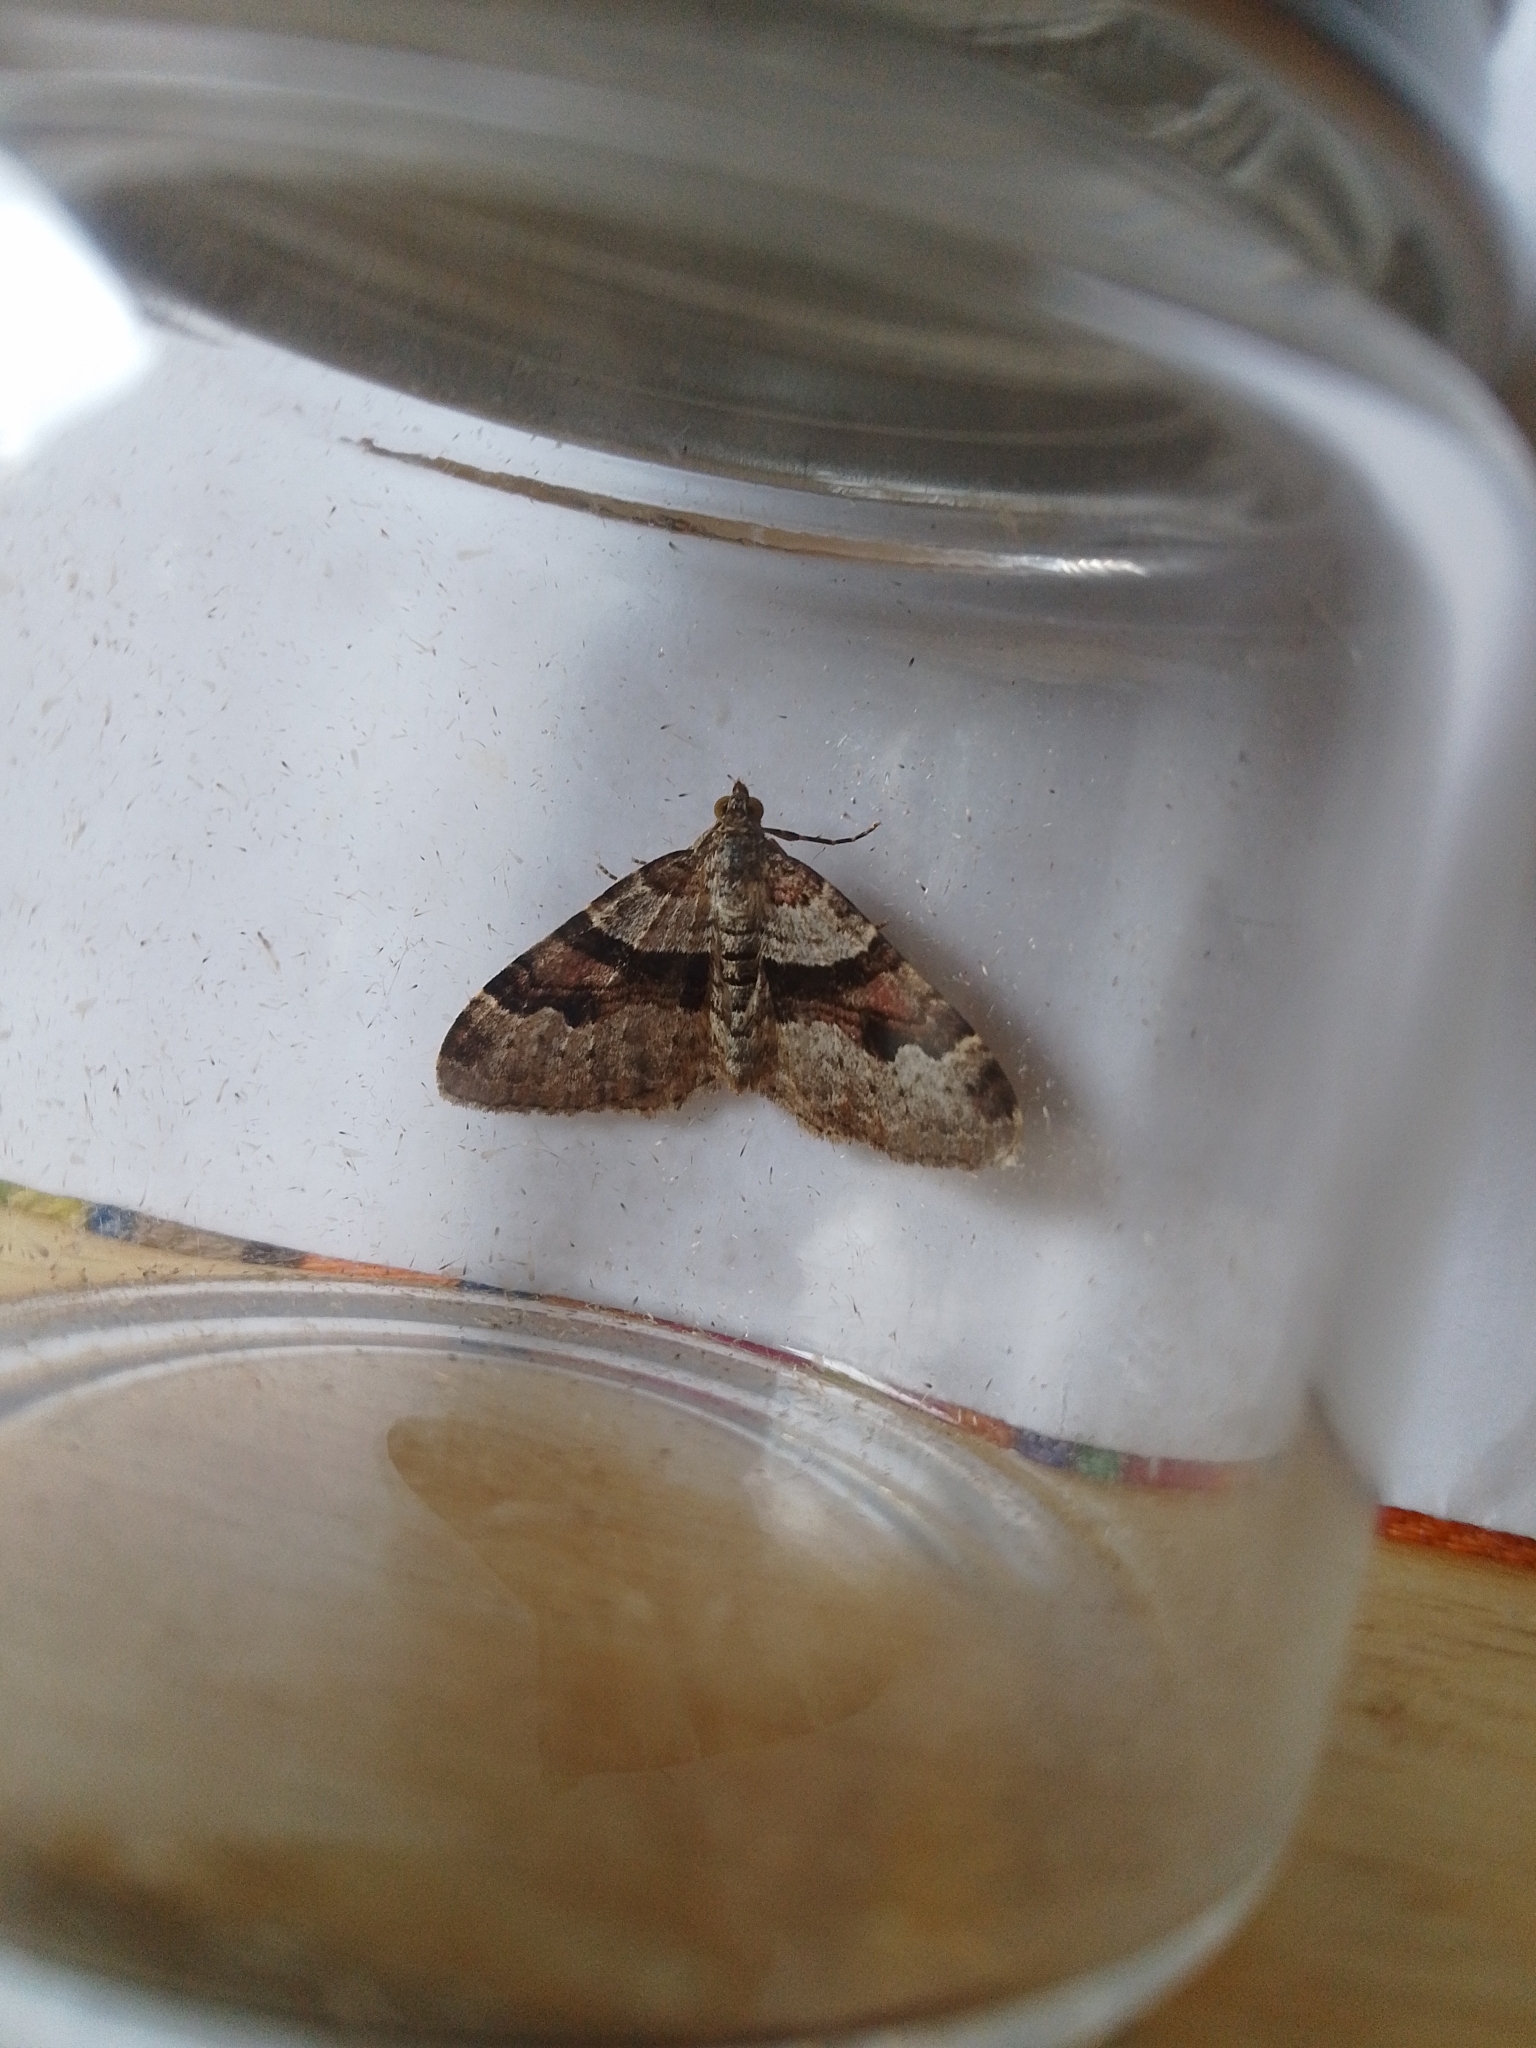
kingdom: Animalia
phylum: Arthropoda
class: Insecta
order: Lepidoptera
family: Geometridae
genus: Xanthorhoe
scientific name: Xanthorhoe designata
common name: Flame carpet
